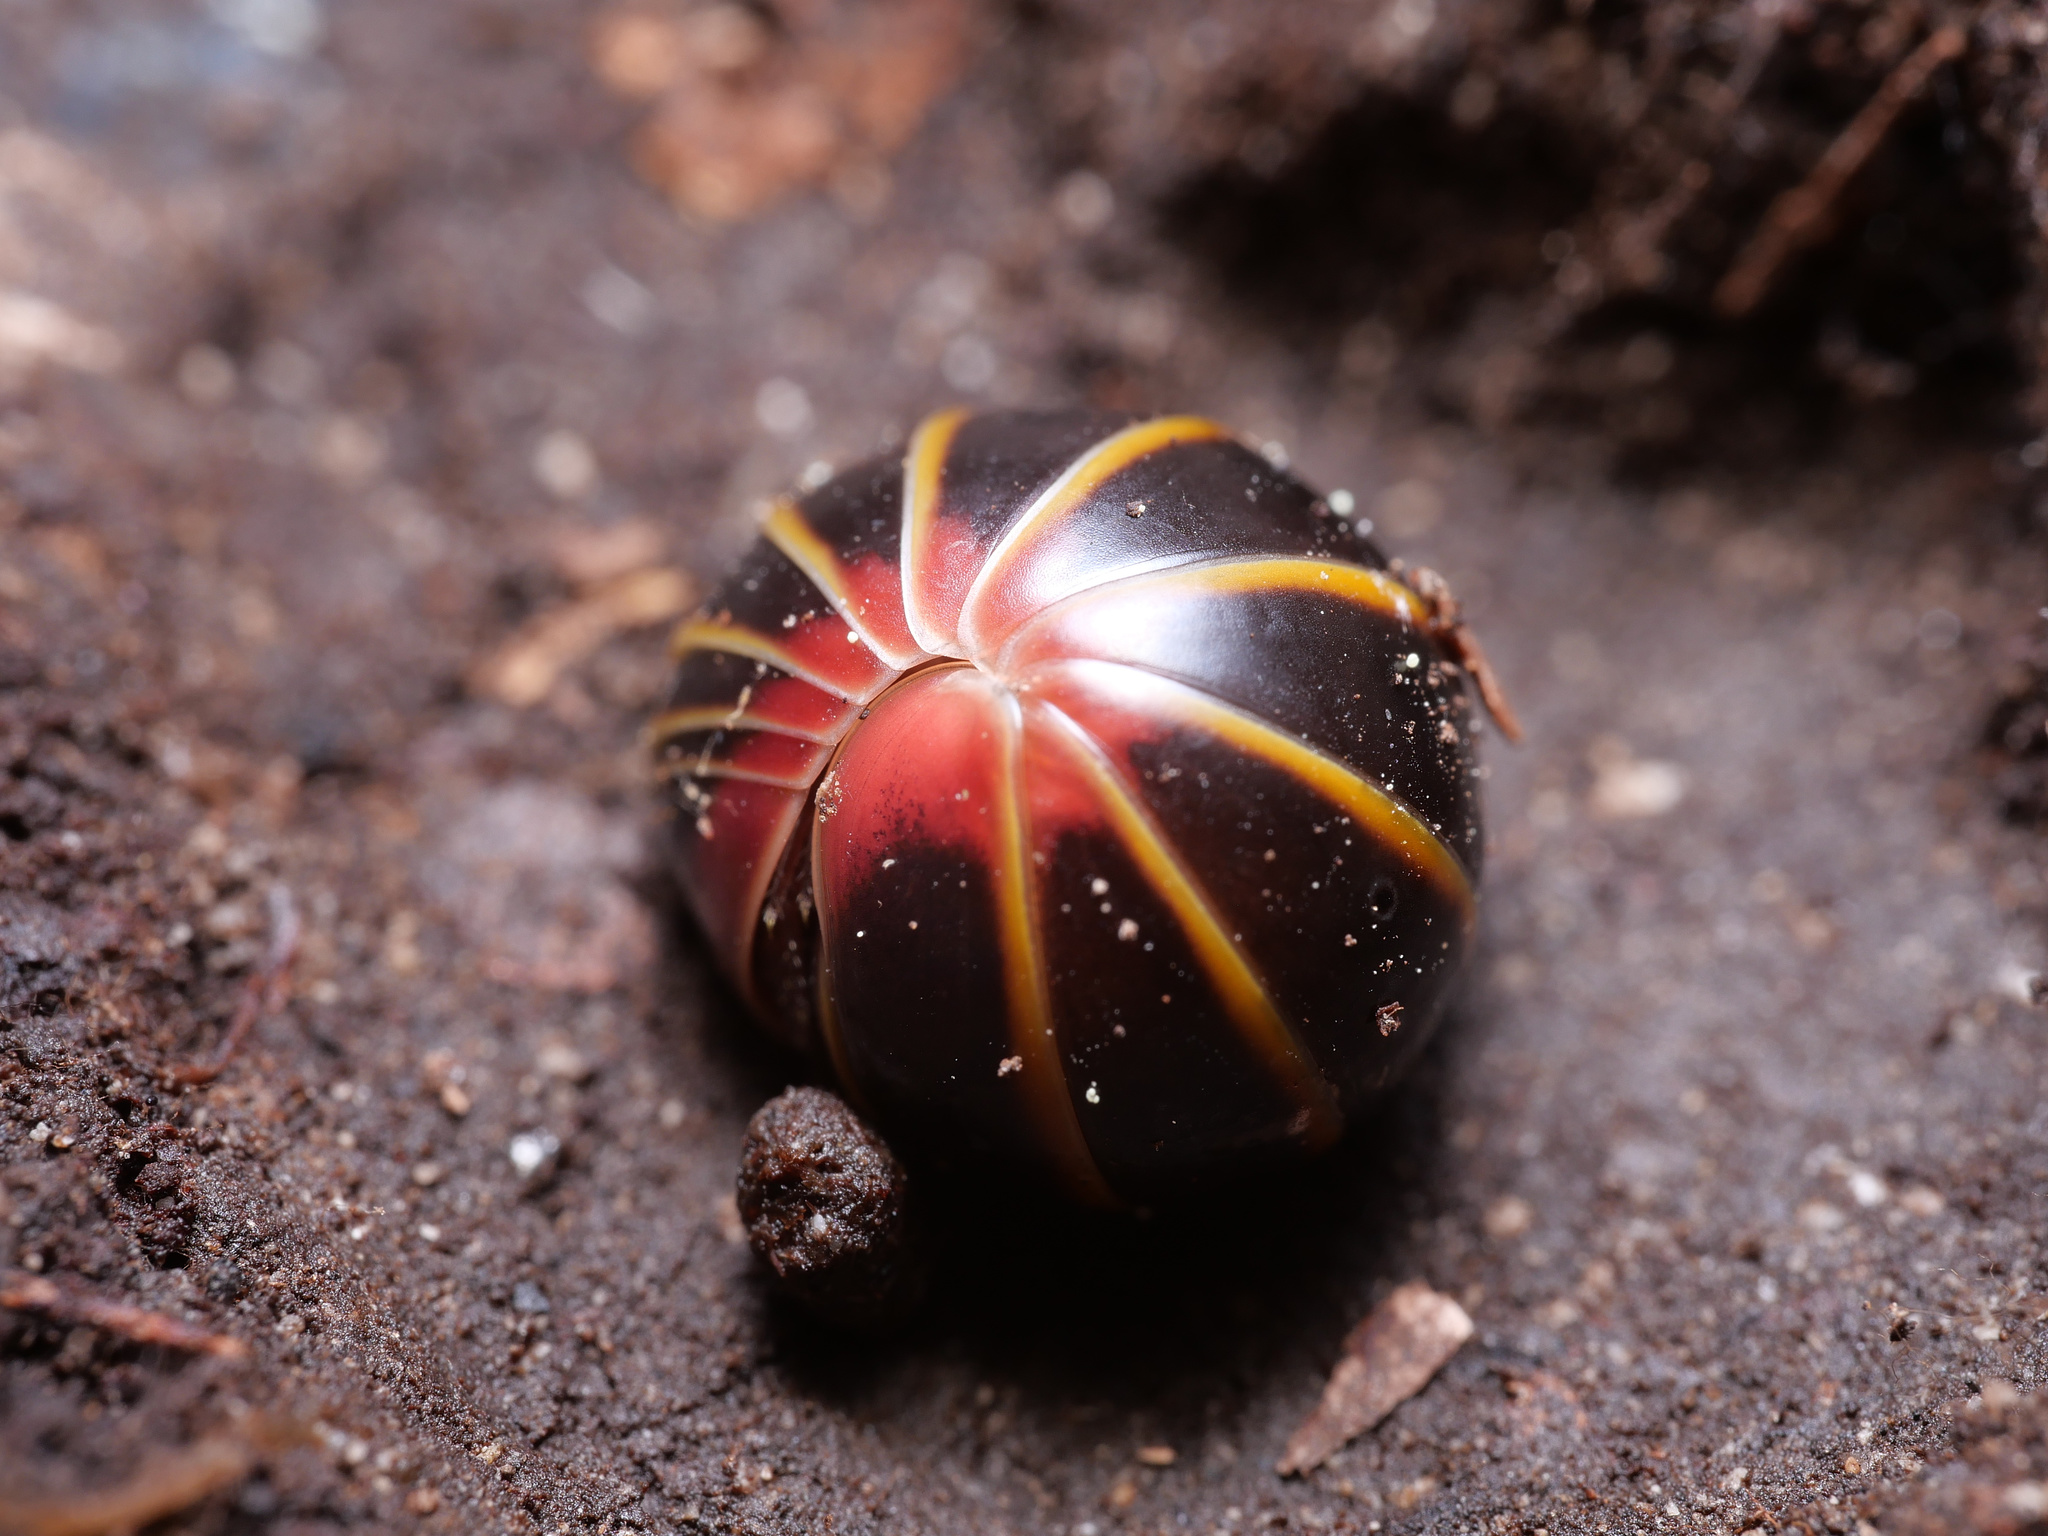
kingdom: Animalia
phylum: Arthropoda
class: Diplopoda
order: Glomerida
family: Glomeridae
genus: Glomeris
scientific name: Glomeris balcanica
